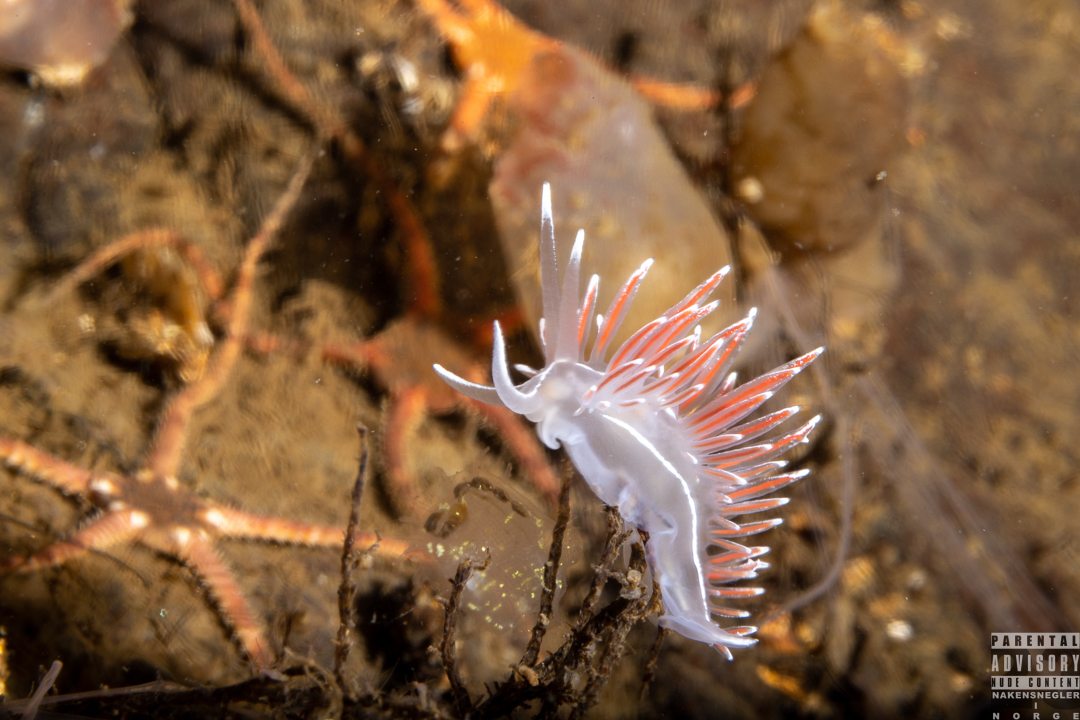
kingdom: Animalia
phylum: Mollusca
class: Gastropoda
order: Nudibranchia
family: Coryphellidae
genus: Coryphella
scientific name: Coryphella lineata
